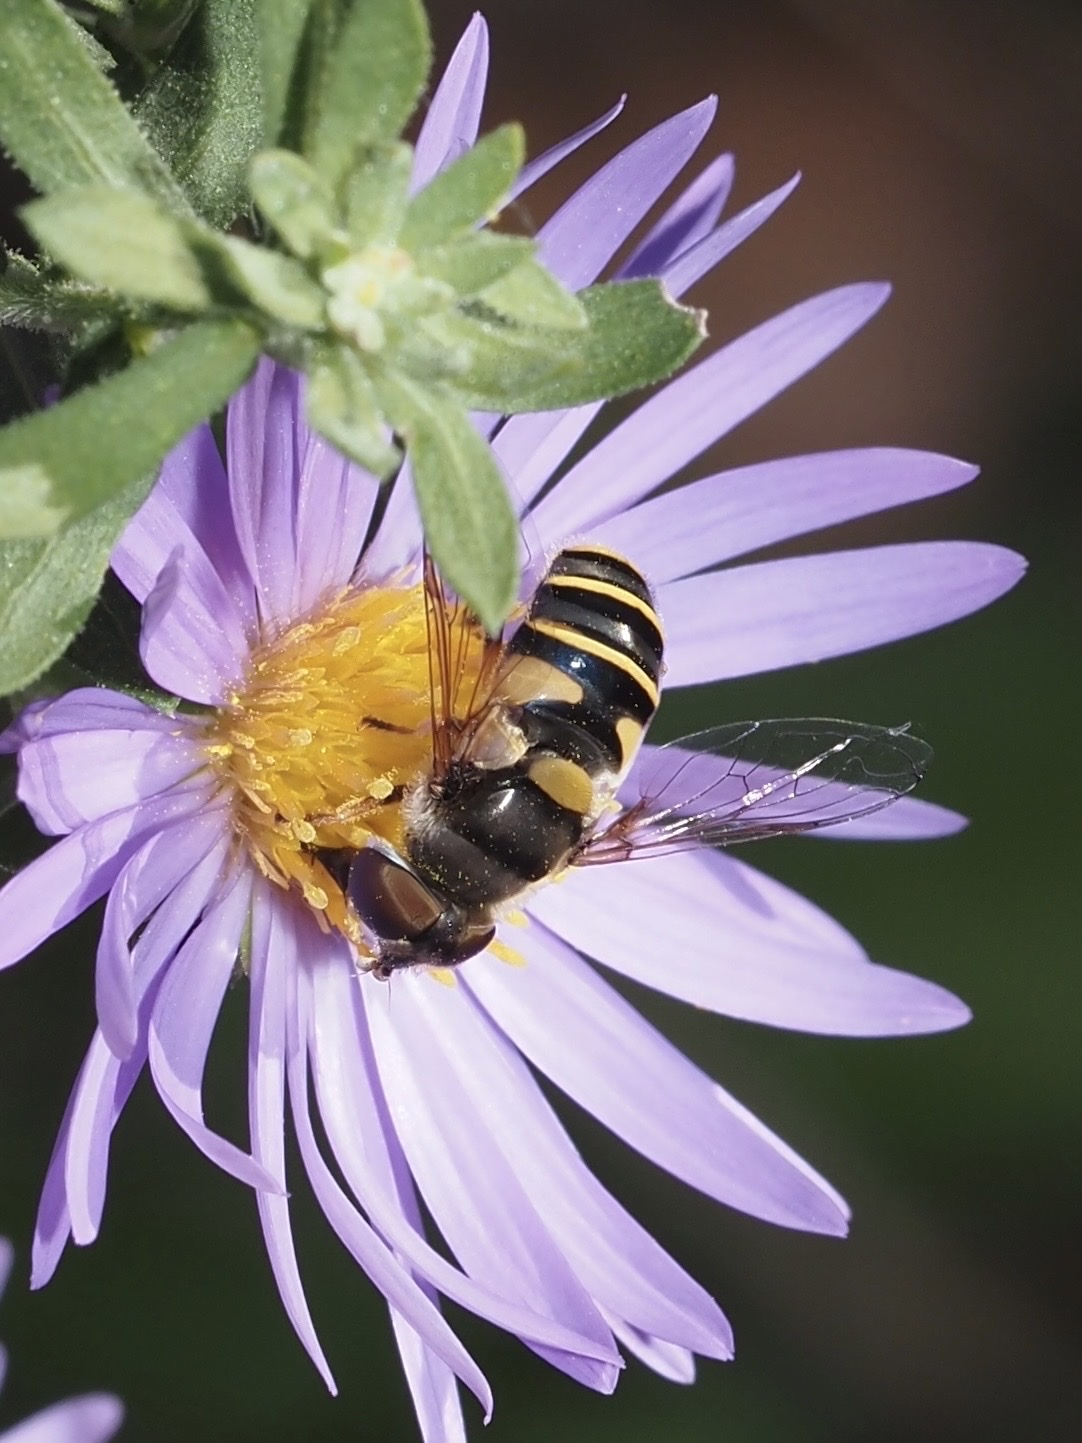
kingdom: Animalia
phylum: Arthropoda
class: Insecta
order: Diptera
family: Syrphidae
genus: Eristalis
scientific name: Eristalis transversa
